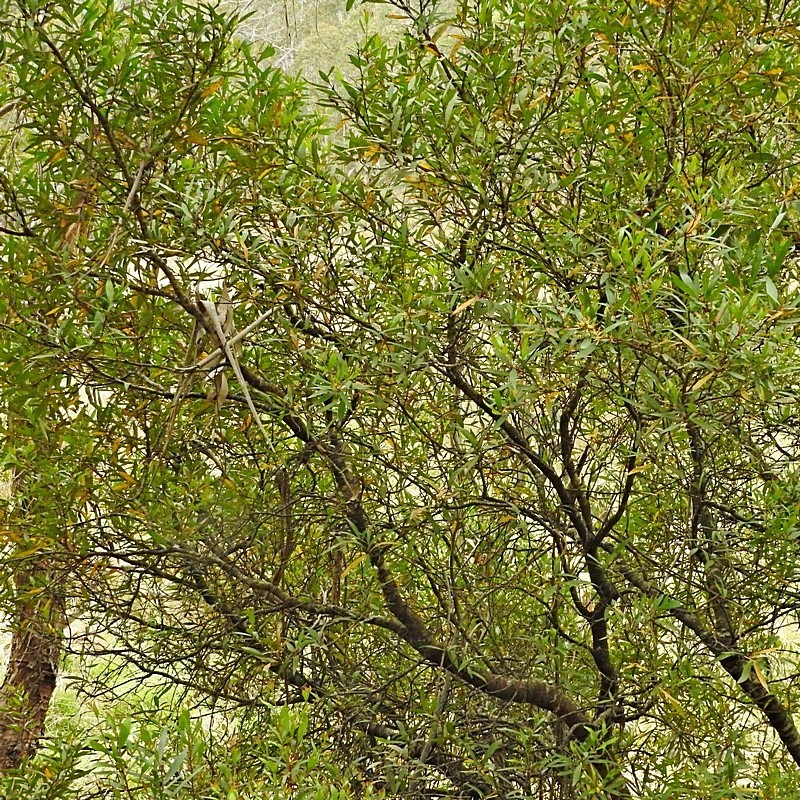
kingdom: Plantae
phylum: Tracheophyta
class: Magnoliopsida
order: Proteales
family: Proteaceae
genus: Persoonia
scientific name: Persoonia silvatica
